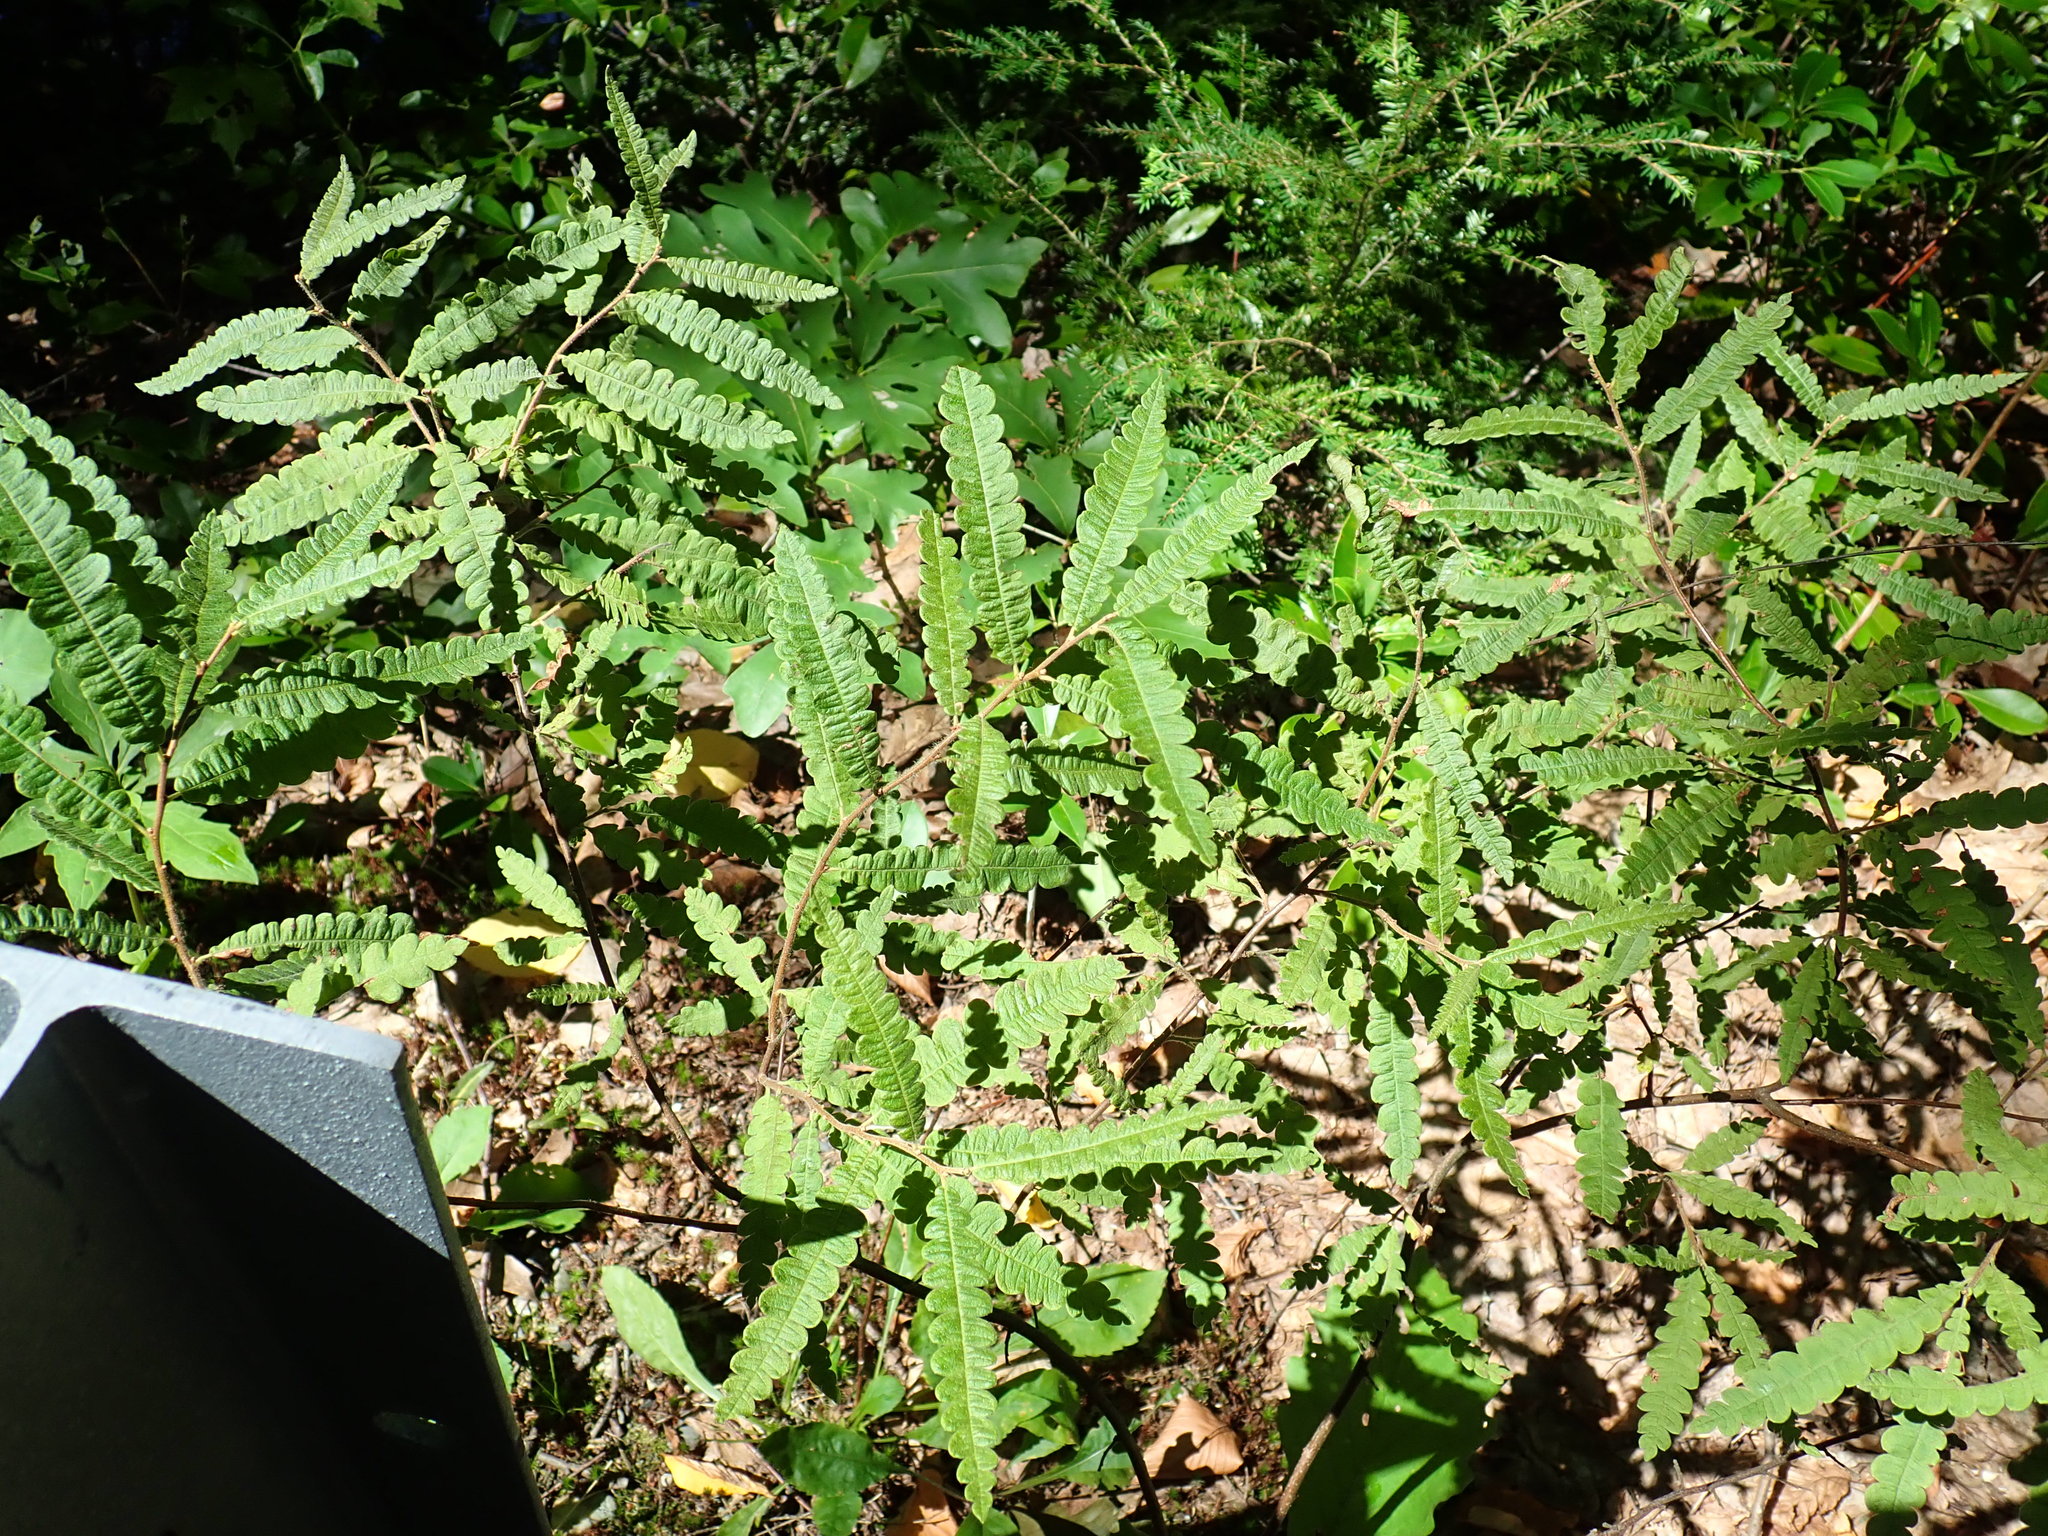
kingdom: Plantae
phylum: Tracheophyta
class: Magnoliopsida
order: Fagales
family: Myricaceae
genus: Comptonia
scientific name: Comptonia peregrina
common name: Sweet-fern
